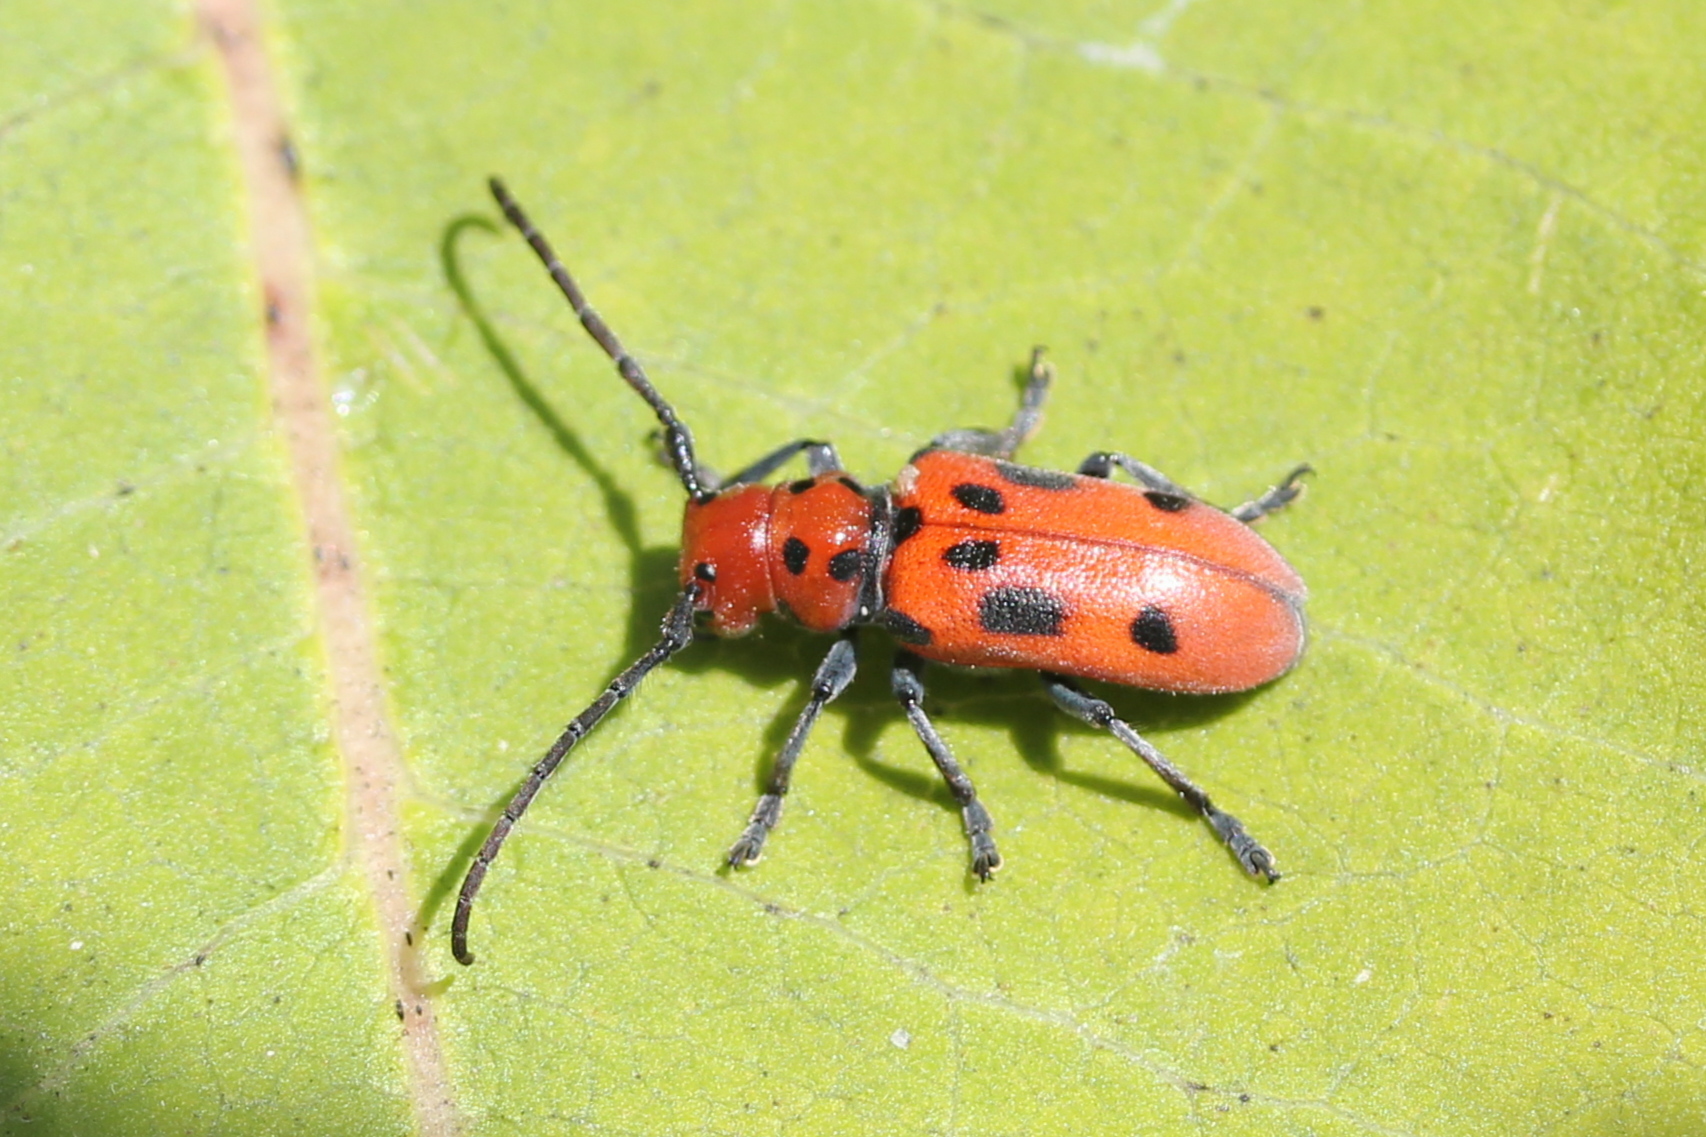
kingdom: Animalia
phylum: Arthropoda
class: Insecta
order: Coleoptera
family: Cerambycidae
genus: Tetraopes
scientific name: Tetraopes tetrophthalmus
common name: Red milkweed beetle
